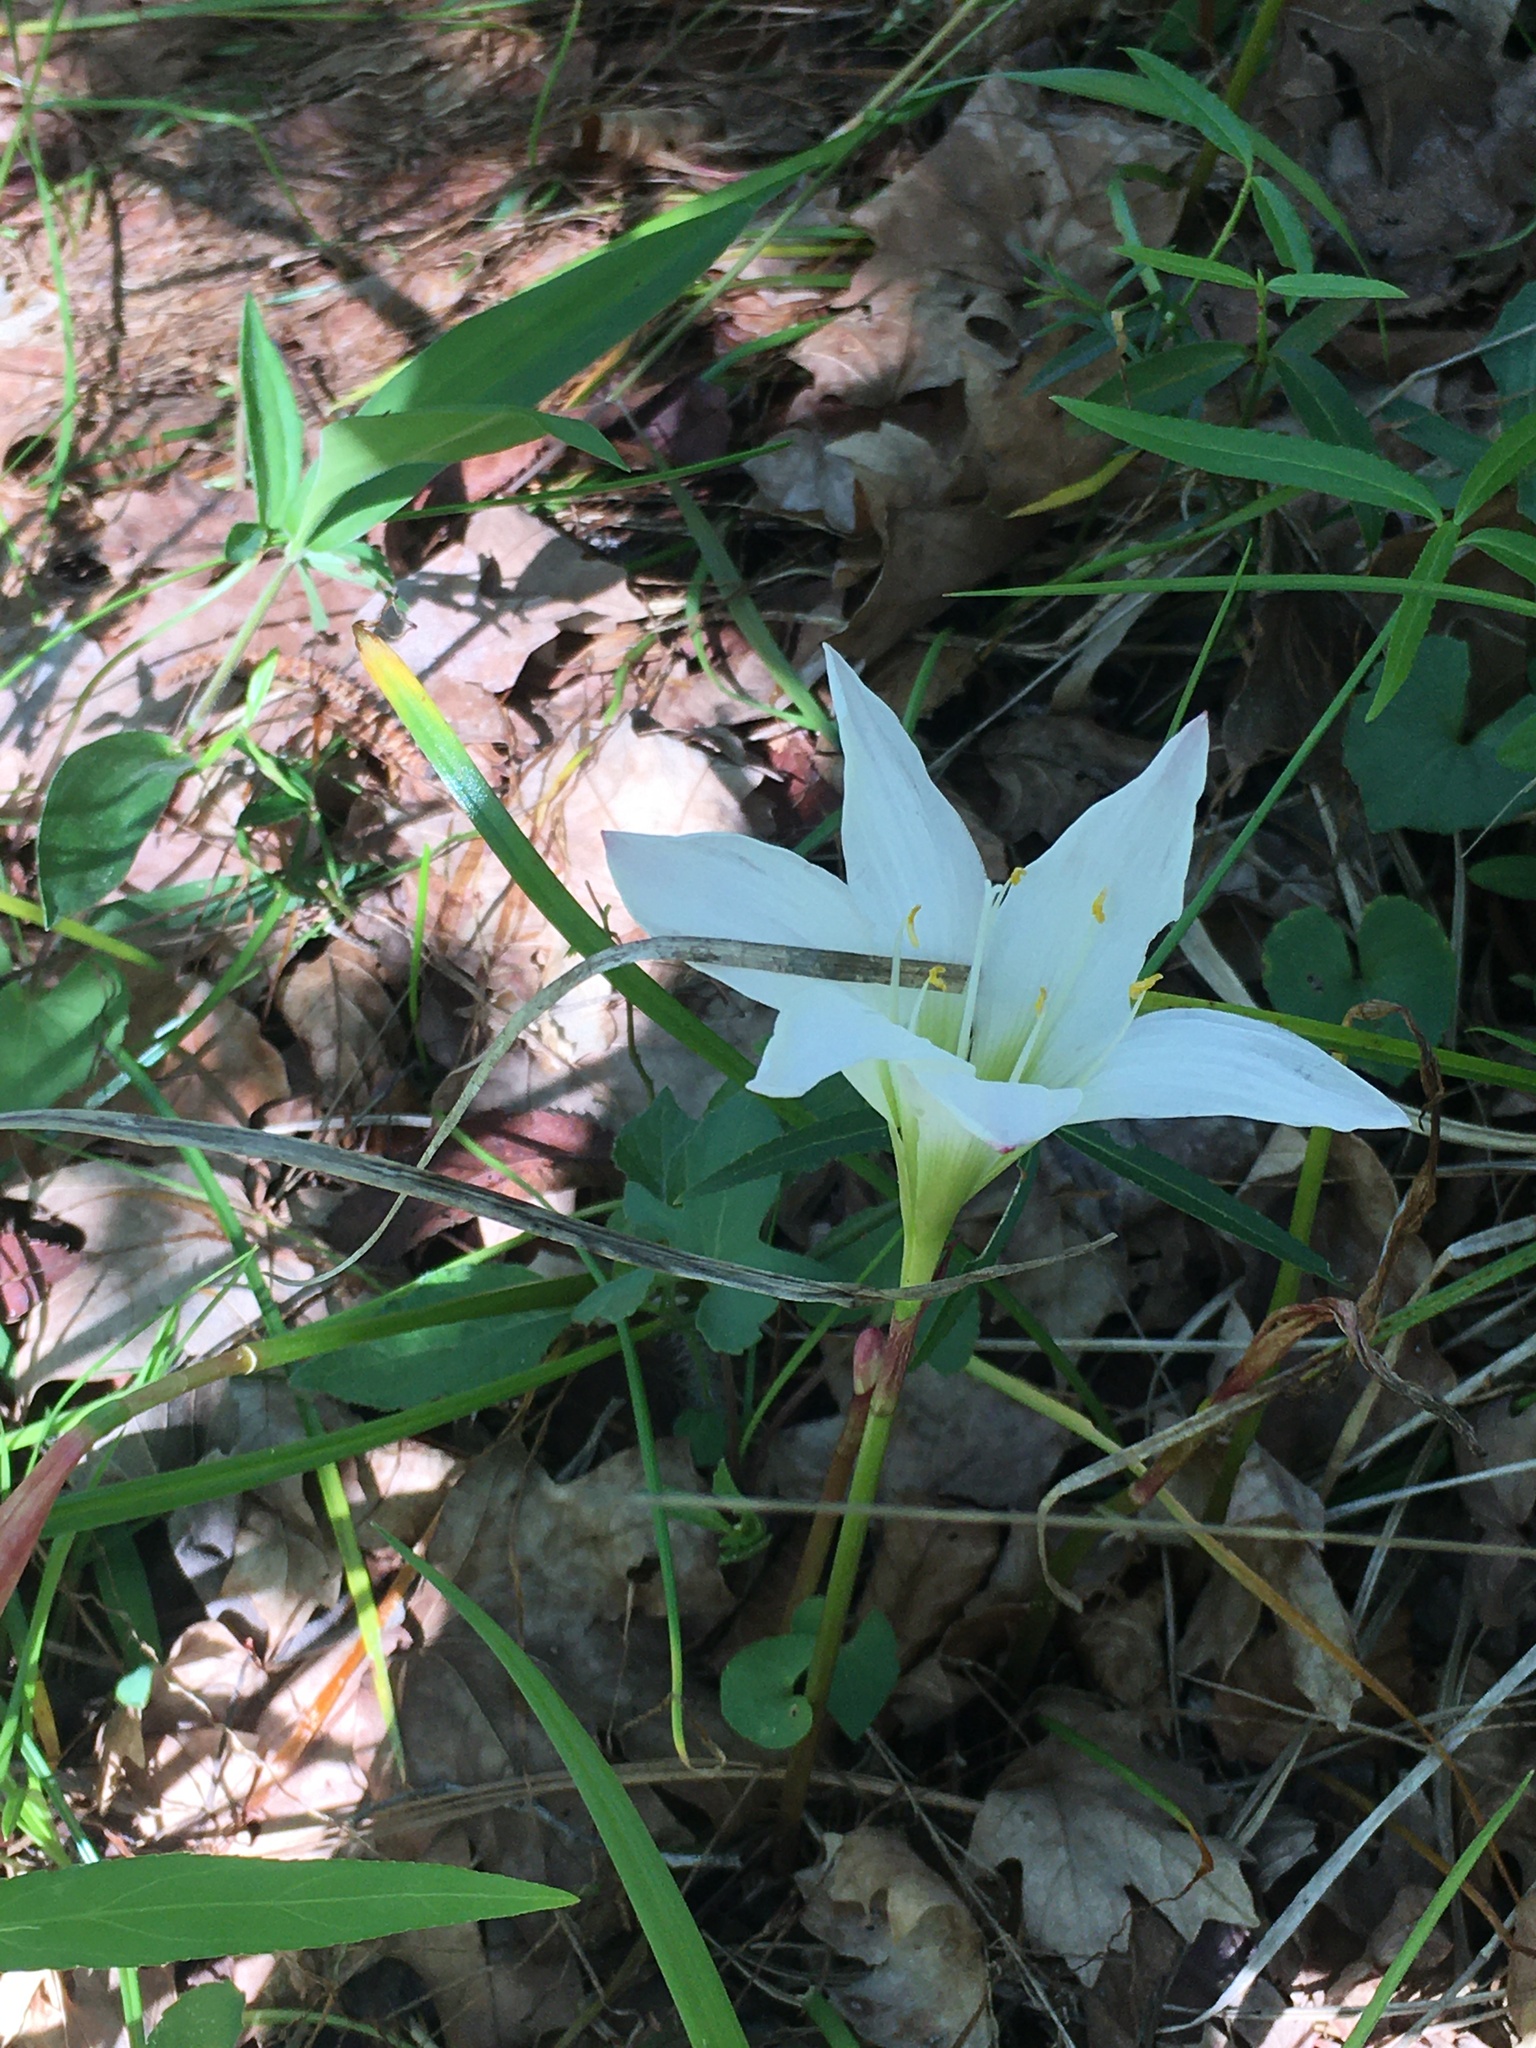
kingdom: Plantae
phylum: Tracheophyta
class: Liliopsida
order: Asparagales
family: Amaryllidaceae
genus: Zephyranthes
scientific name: Zephyranthes atamasco
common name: Atamasco lily
